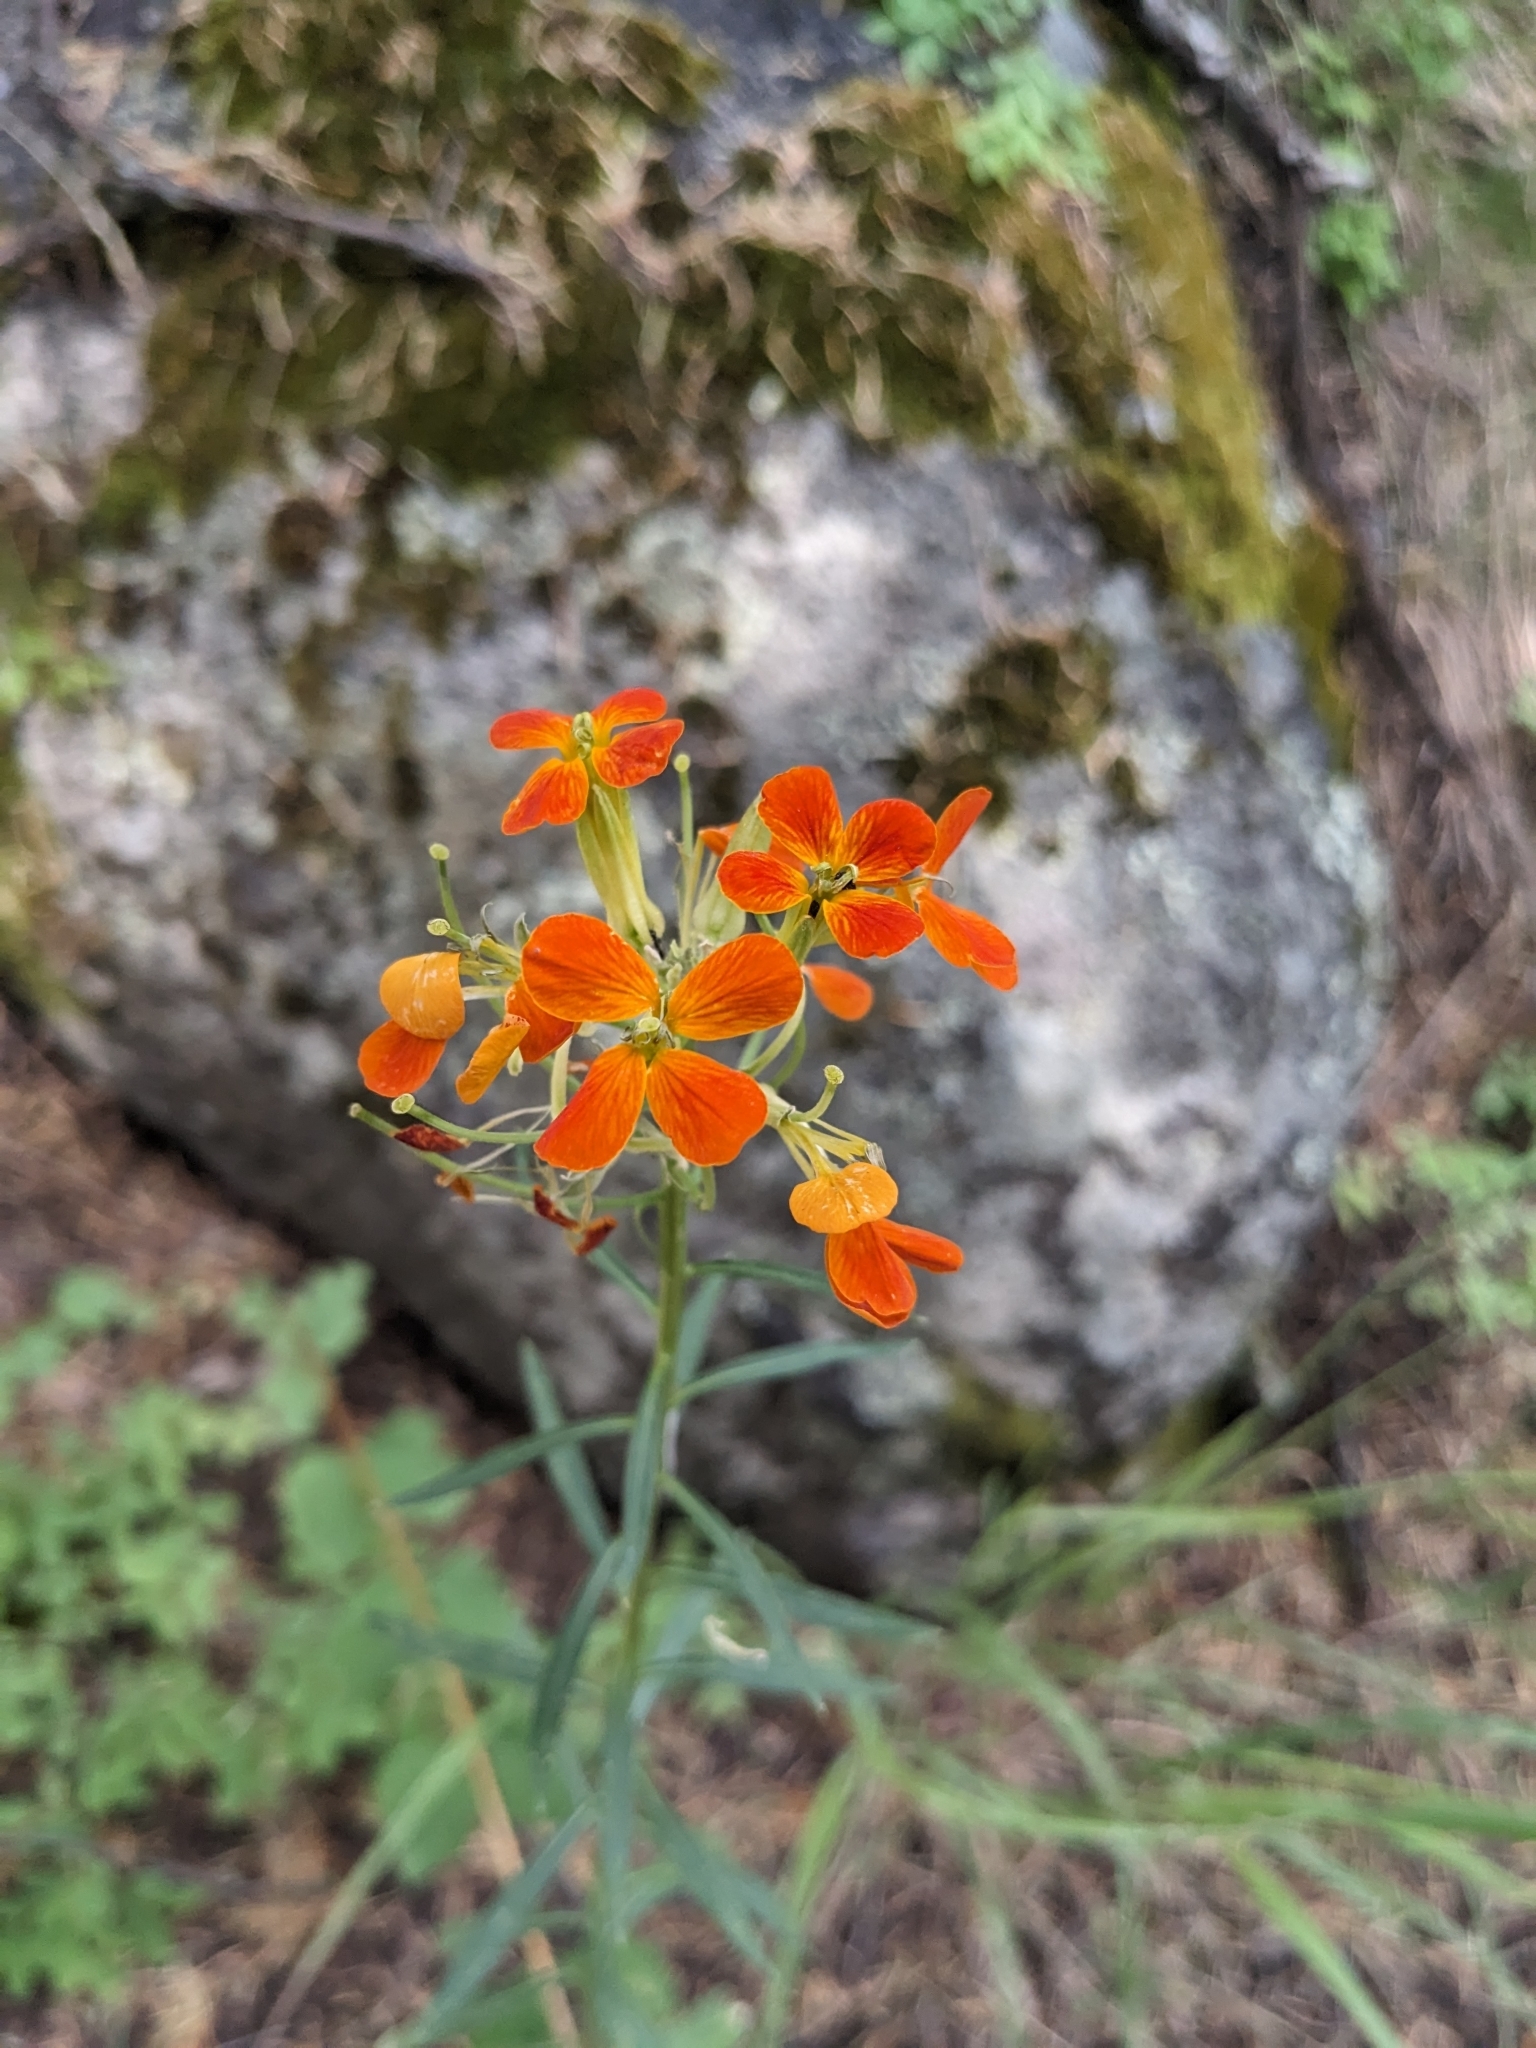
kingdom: Plantae
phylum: Tracheophyta
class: Magnoliopsida
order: Brassicales
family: Brassicaceae
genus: Erysimum
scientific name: Erysimum capitatum
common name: Western wallflower
